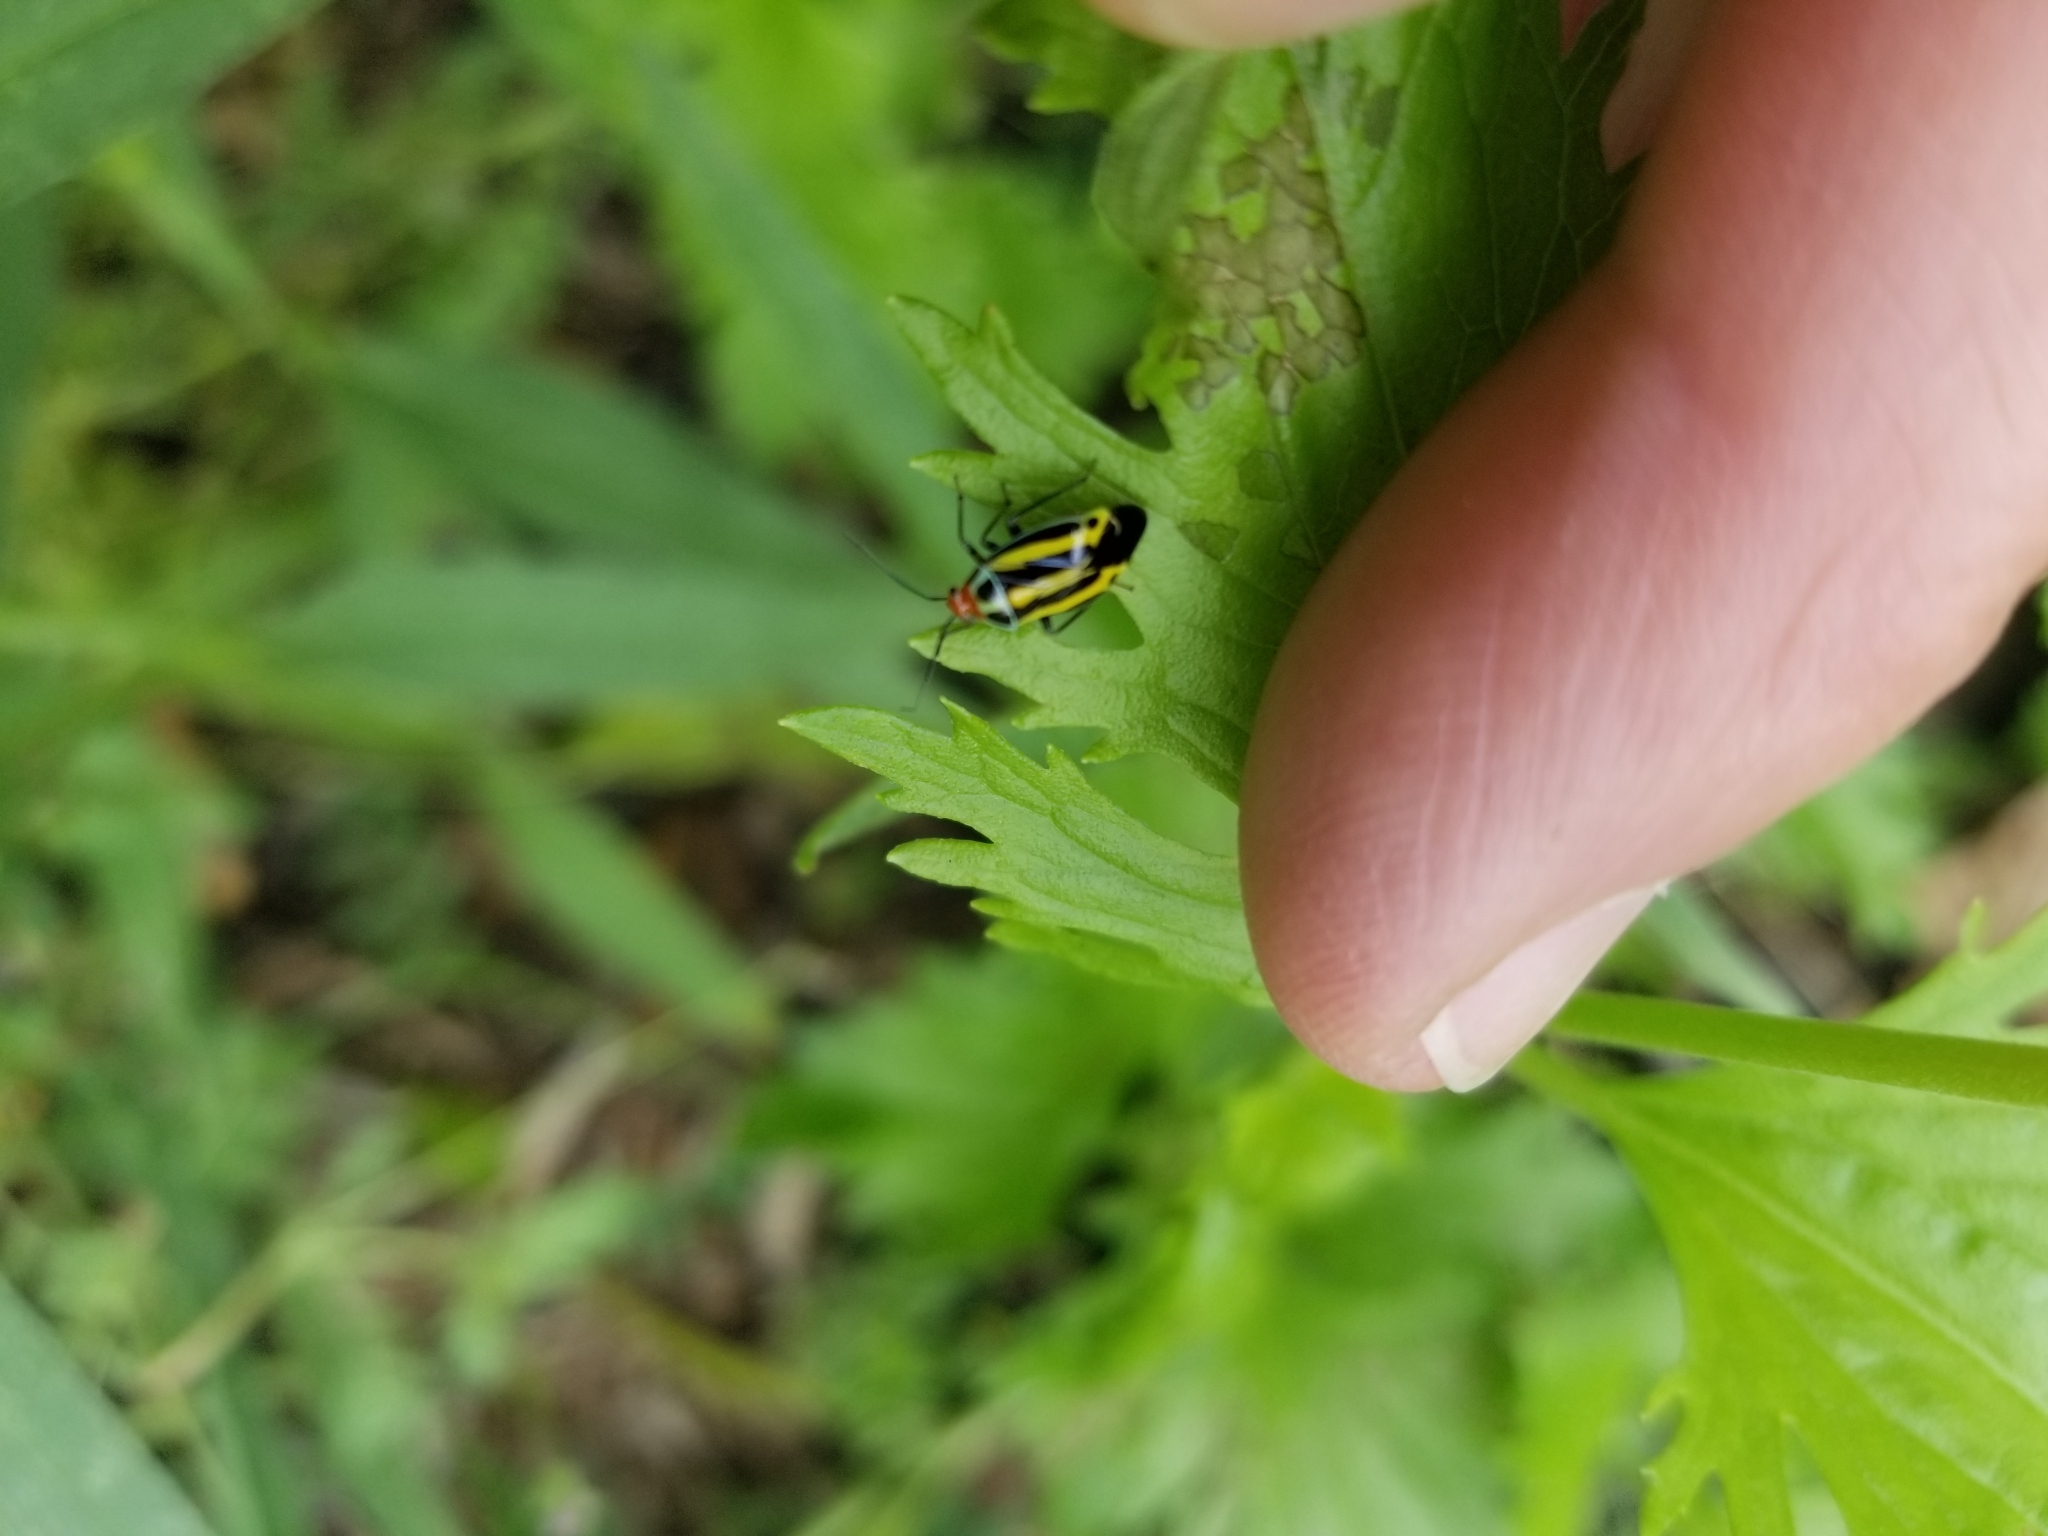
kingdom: Animalia
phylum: Arthropoda
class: Insecta
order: Hemiptera
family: Miridae
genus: Poecilocapsus
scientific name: Poecilocapsus lineatus
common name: Four-lined plant bug
